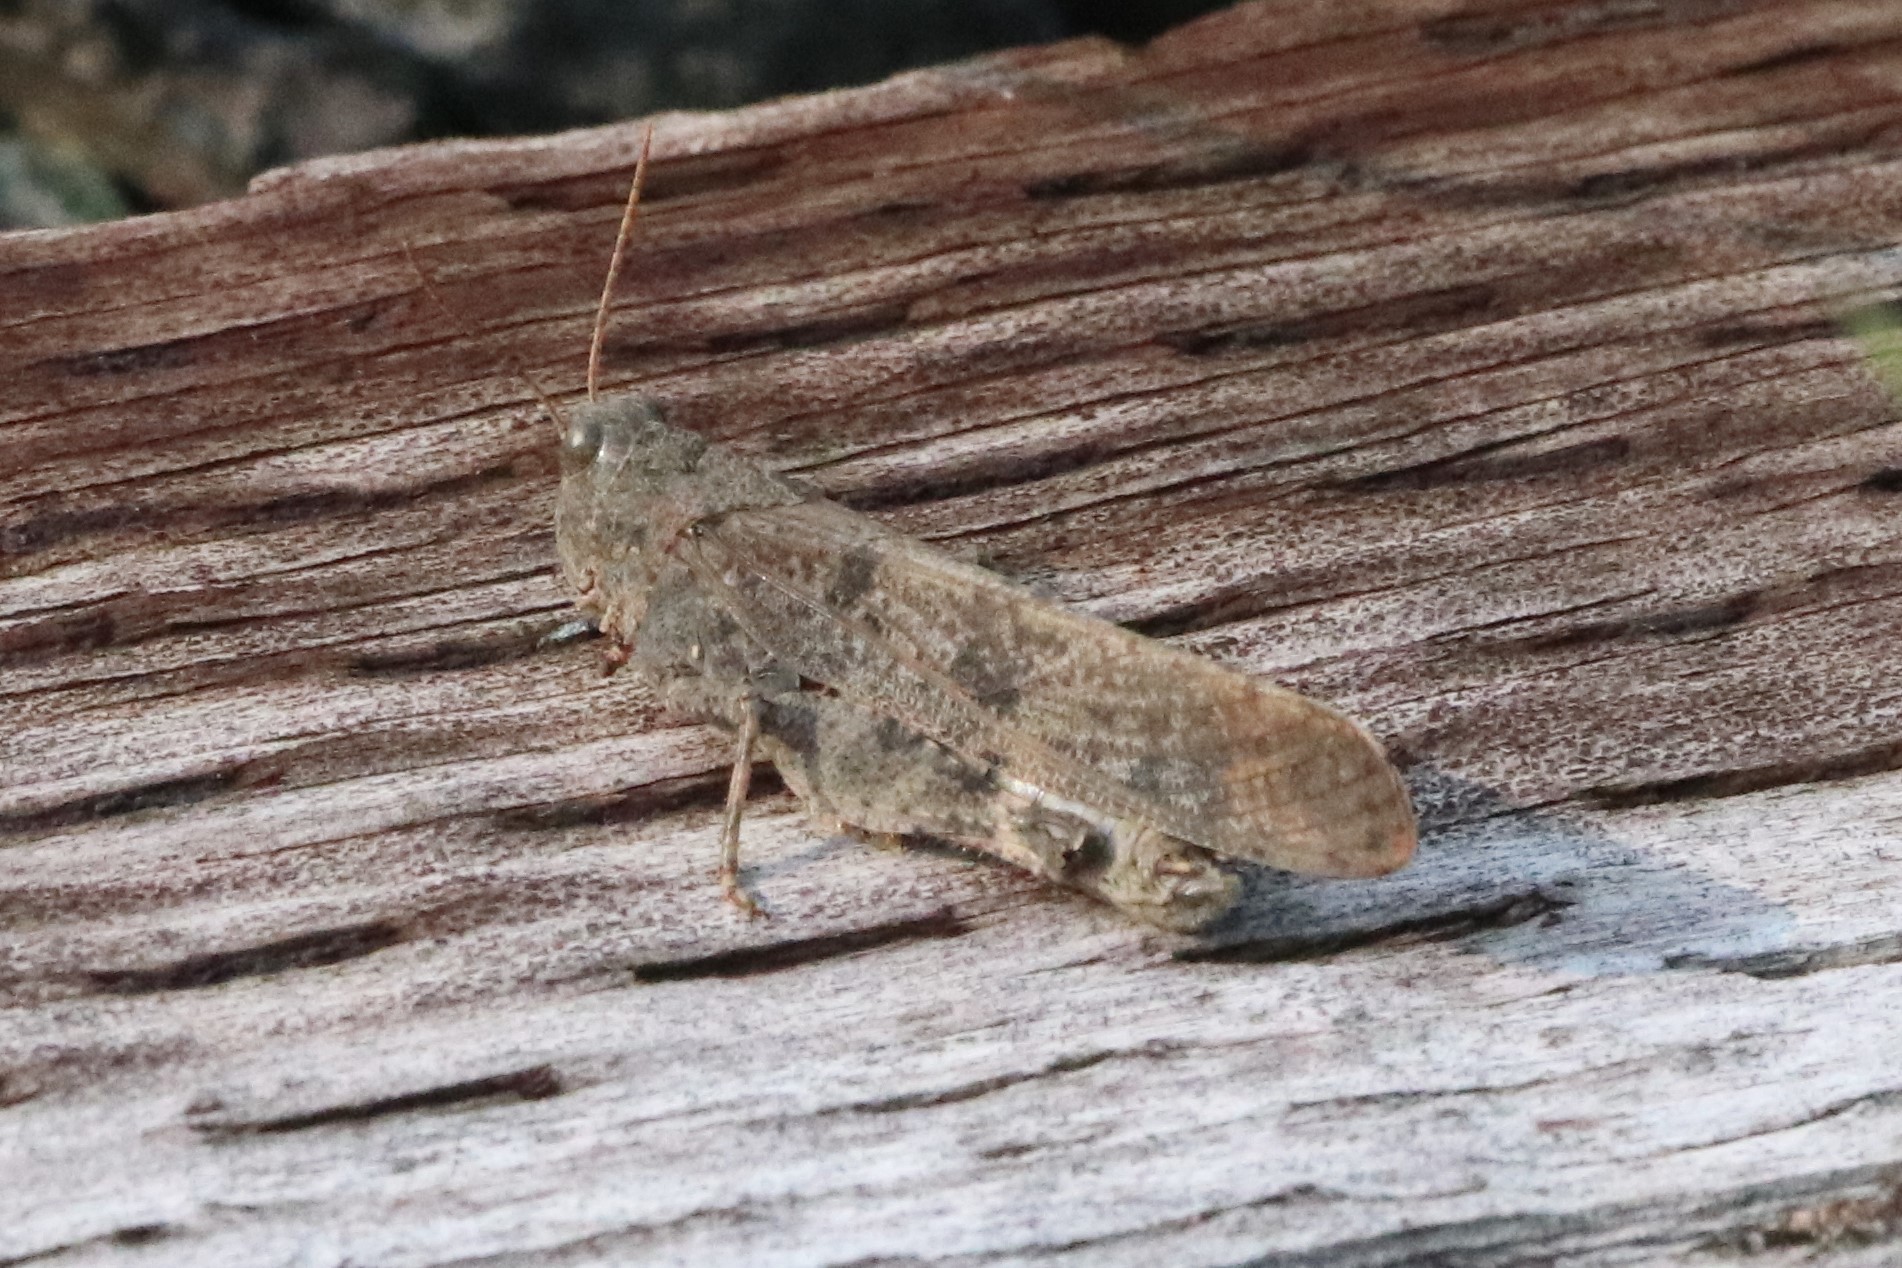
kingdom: Animalia
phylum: Arthropoda
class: Insecta
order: Orthoptera
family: Acrididae
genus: Dissosteira
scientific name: Dissosteira carolina
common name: Carolina grasshopper
